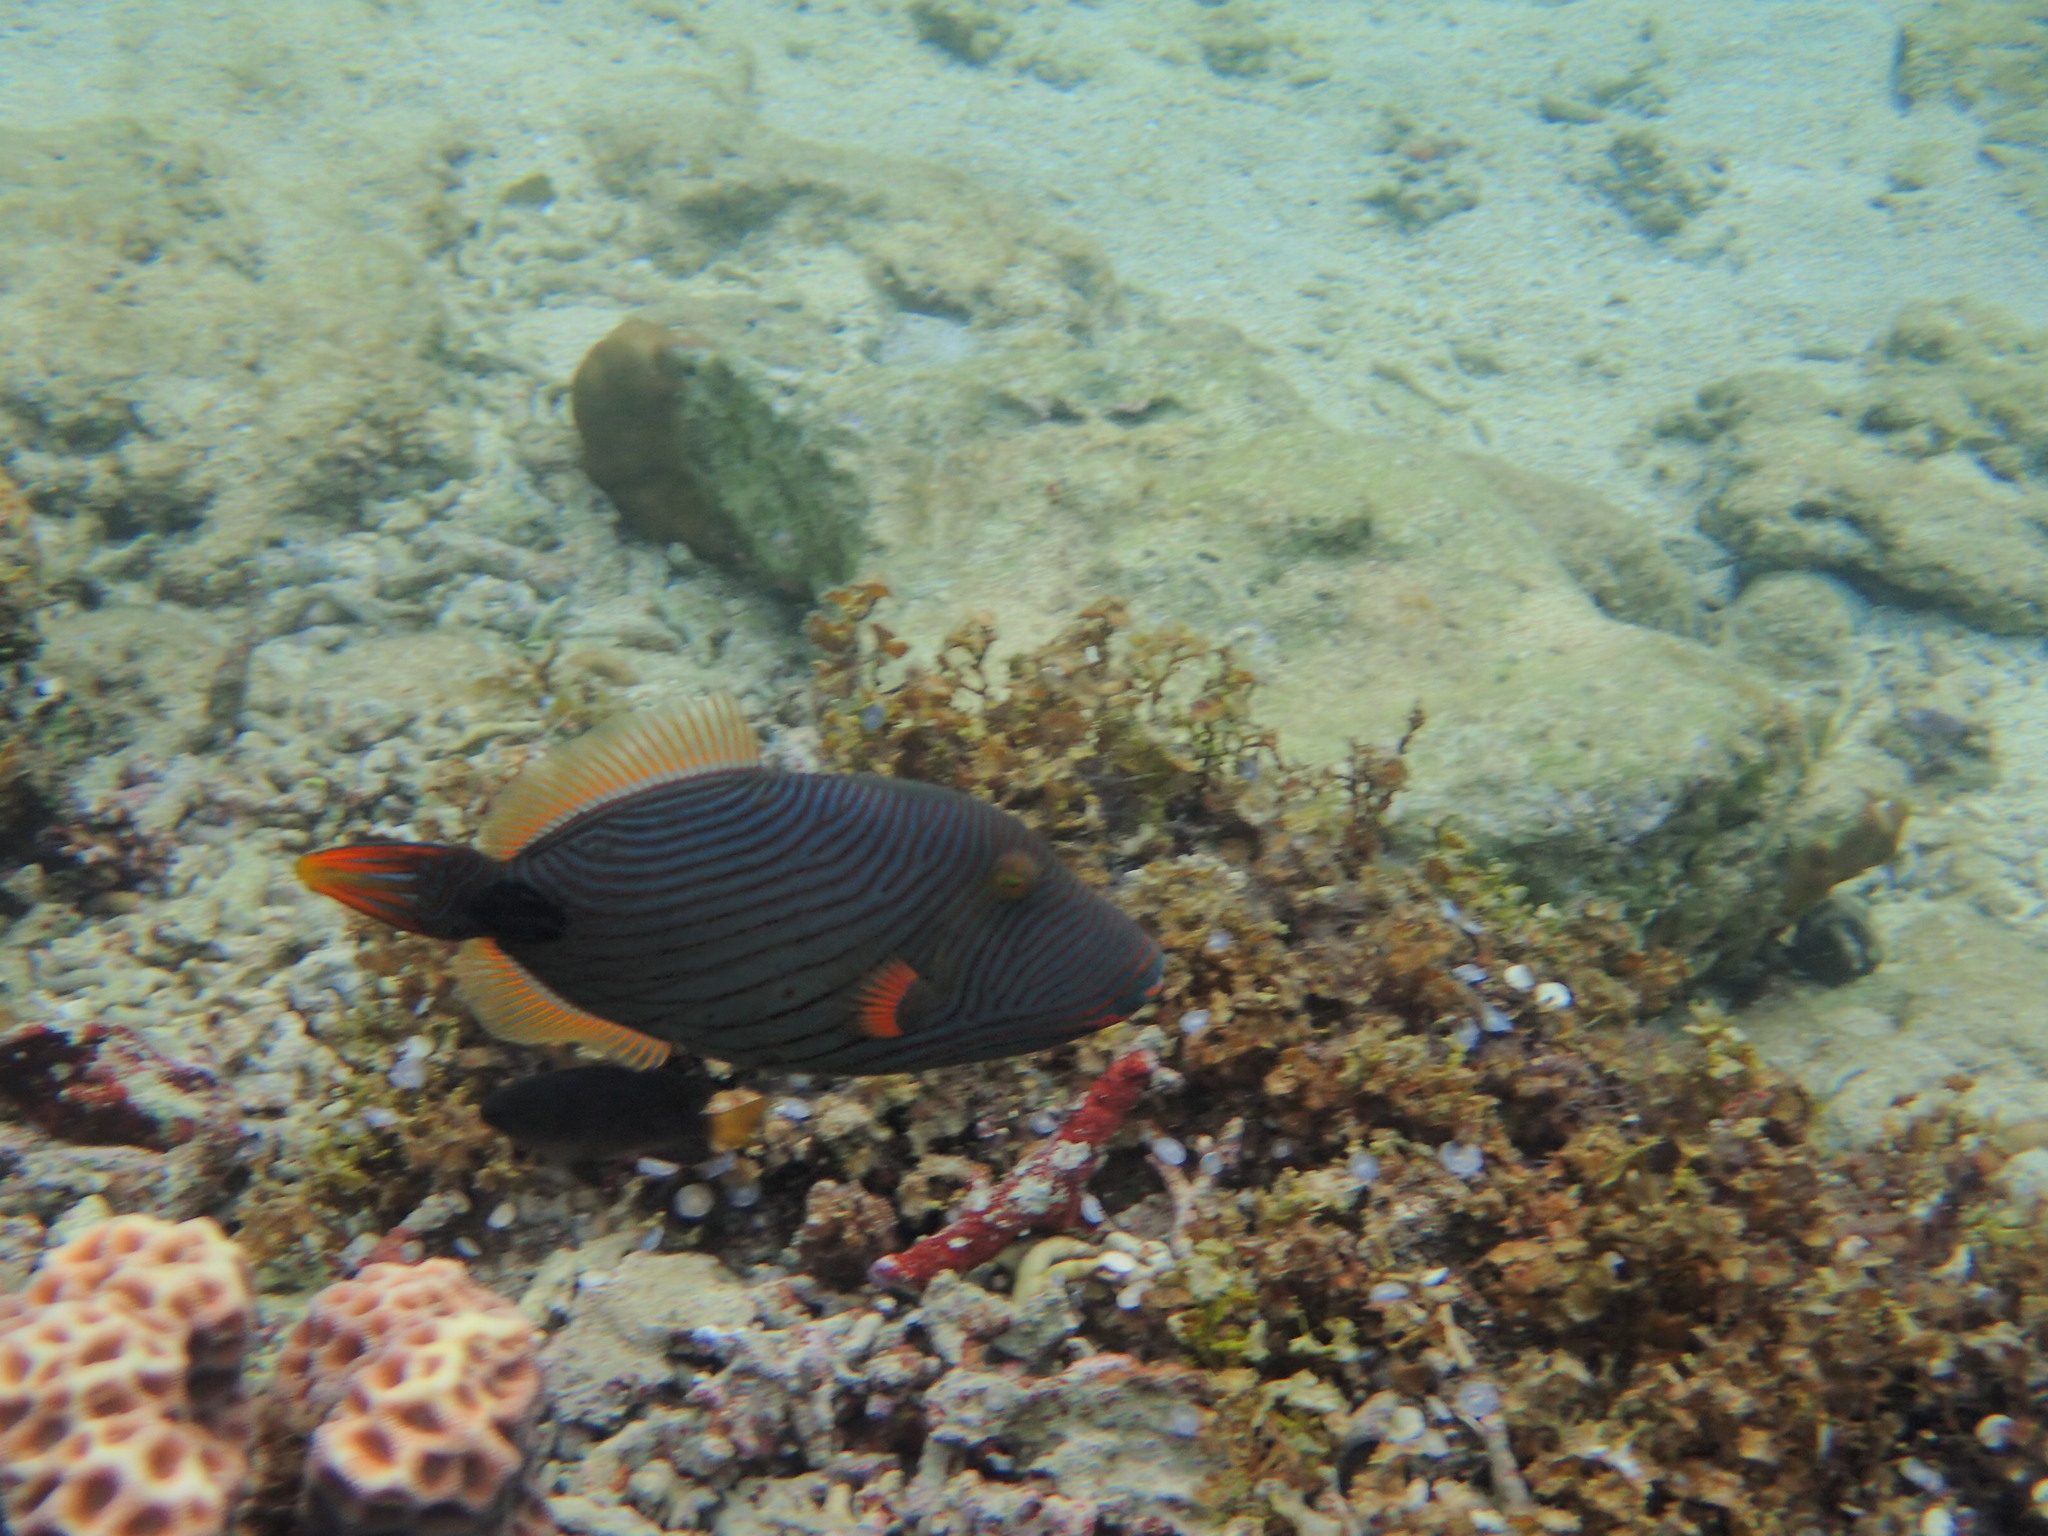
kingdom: Animalia
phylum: Chordata
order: Tetraodontiformes
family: Balistidae
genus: Balistapus
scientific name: Balistapus undulatus
